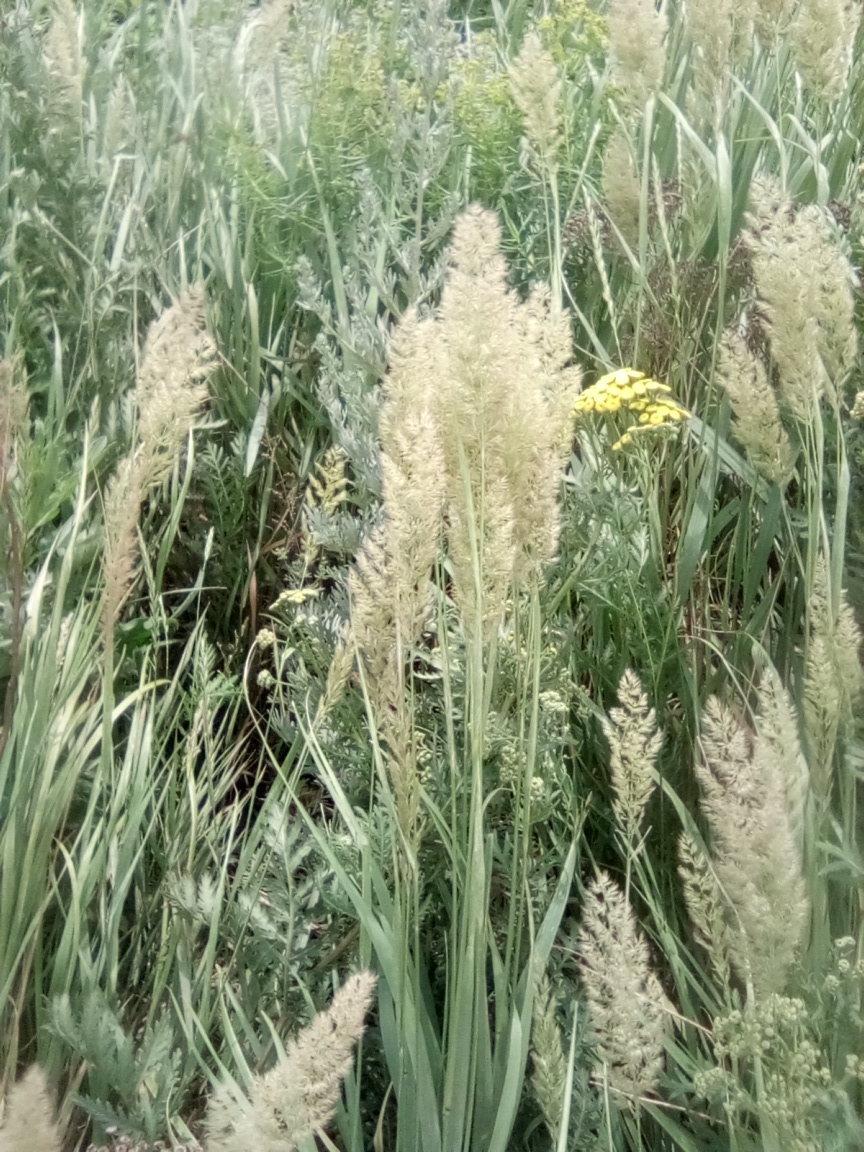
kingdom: Plantae
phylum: Tracheophyta
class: Liliopsida
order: Poales
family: Poaceae
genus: Calamagrostis
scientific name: Calamagrostis epigejos
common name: Wood small-reed
